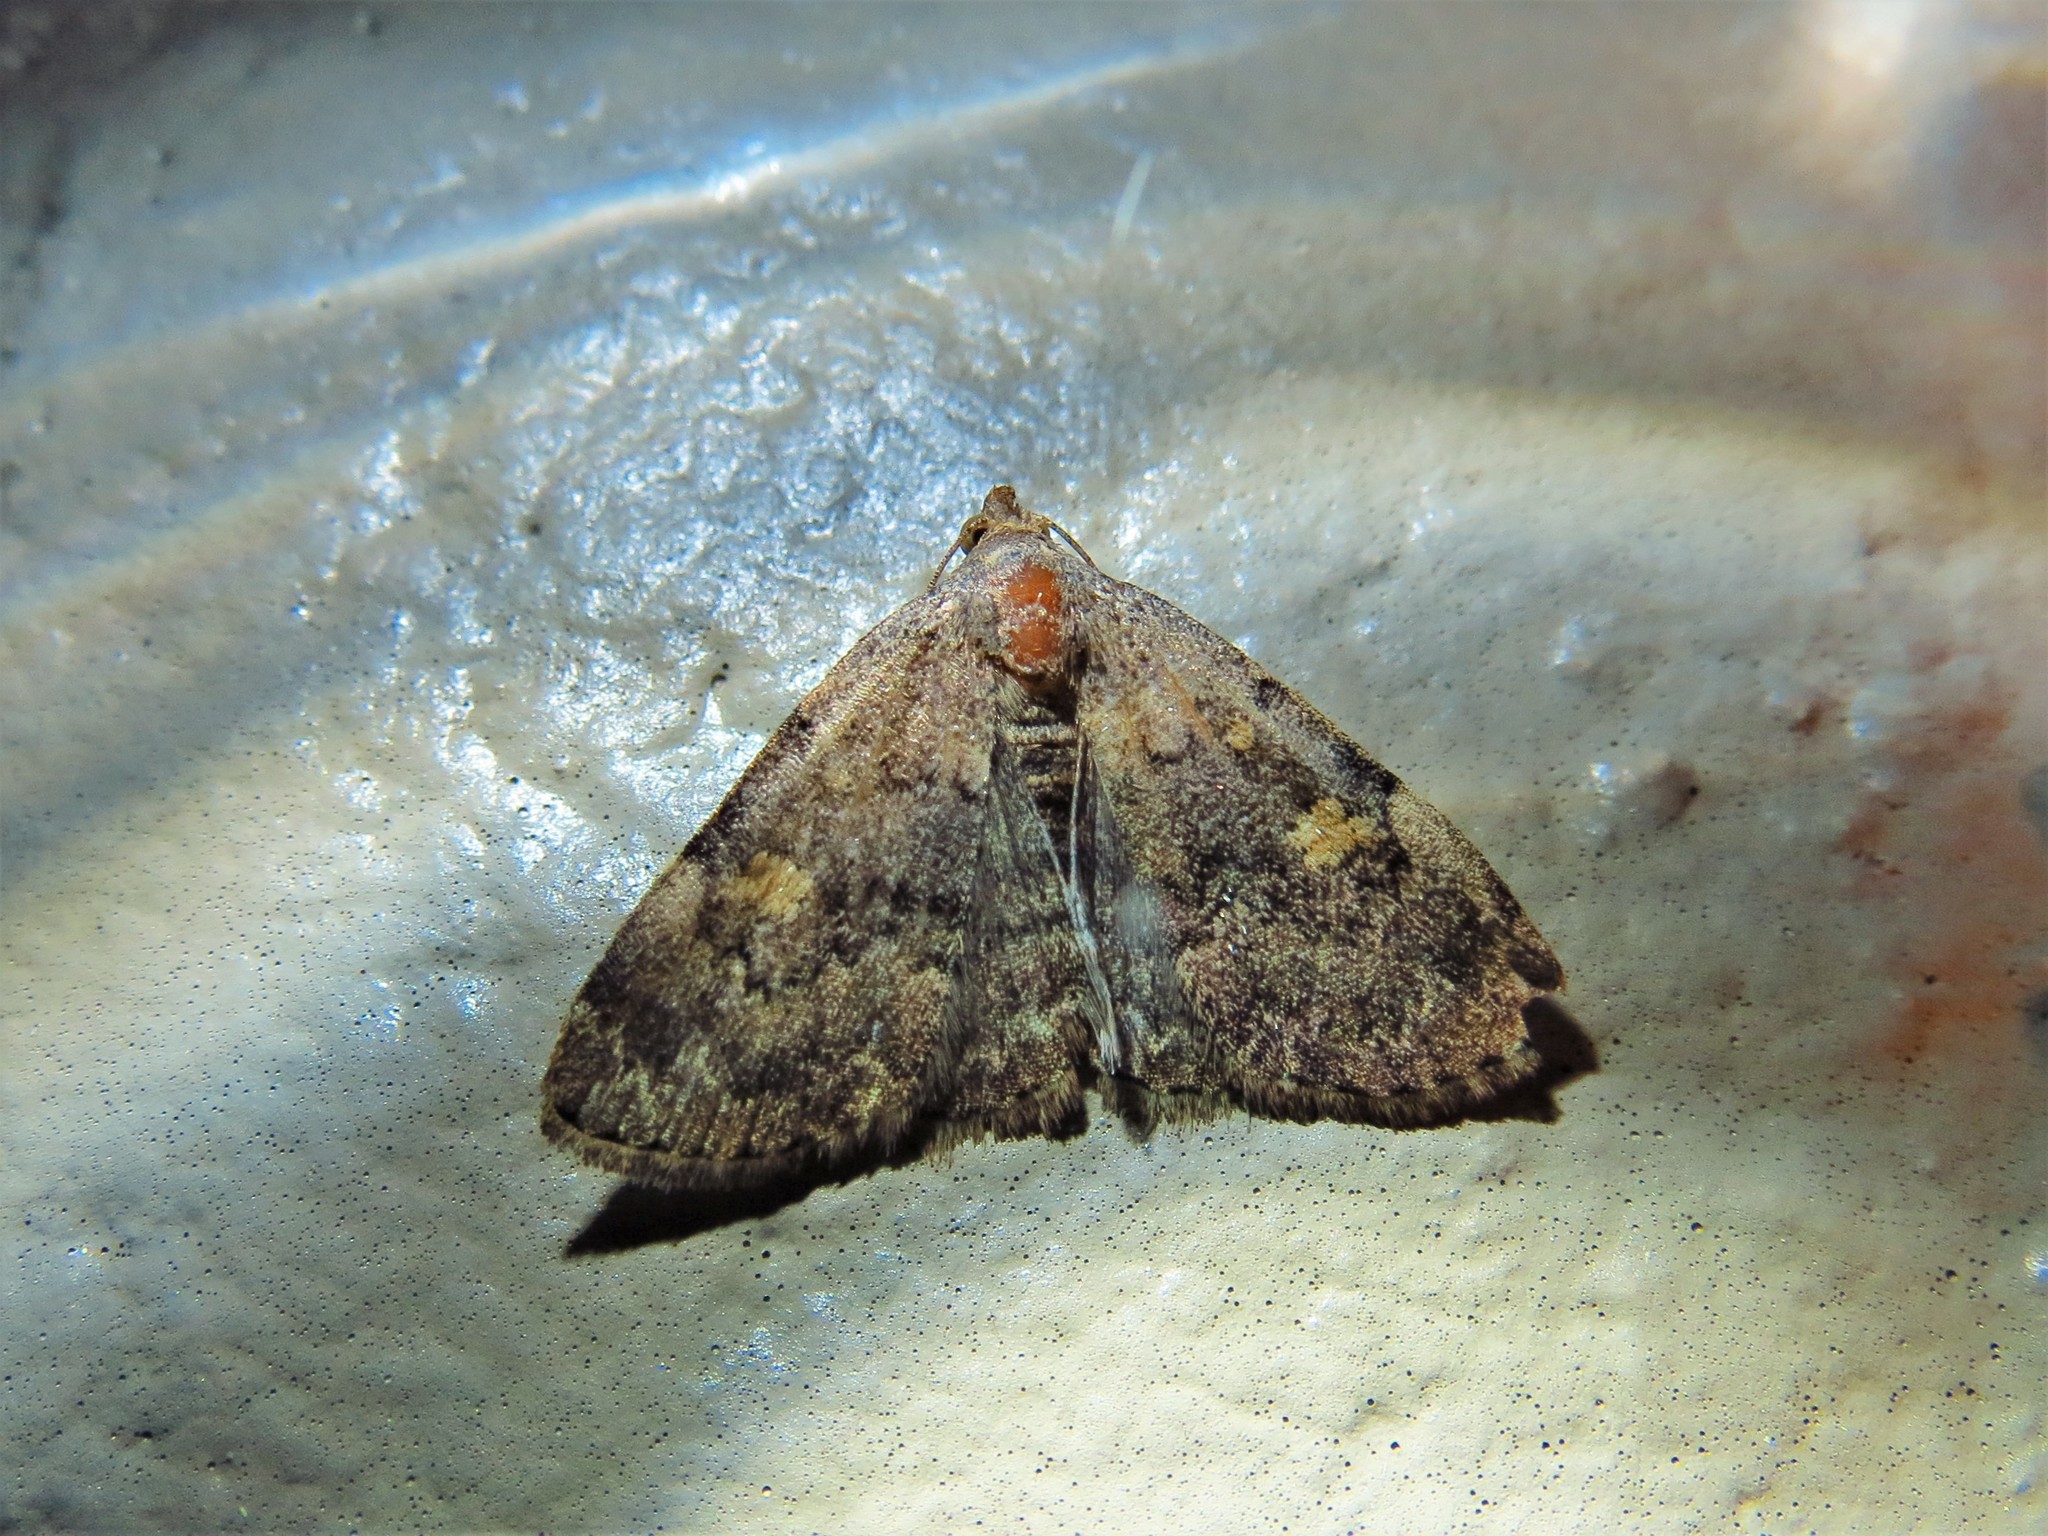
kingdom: Animalia
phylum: Arthropoda
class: Insecta
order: Lepidoptera
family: Erebidae
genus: Idia
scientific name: Idia aemula
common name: Common idia moth
